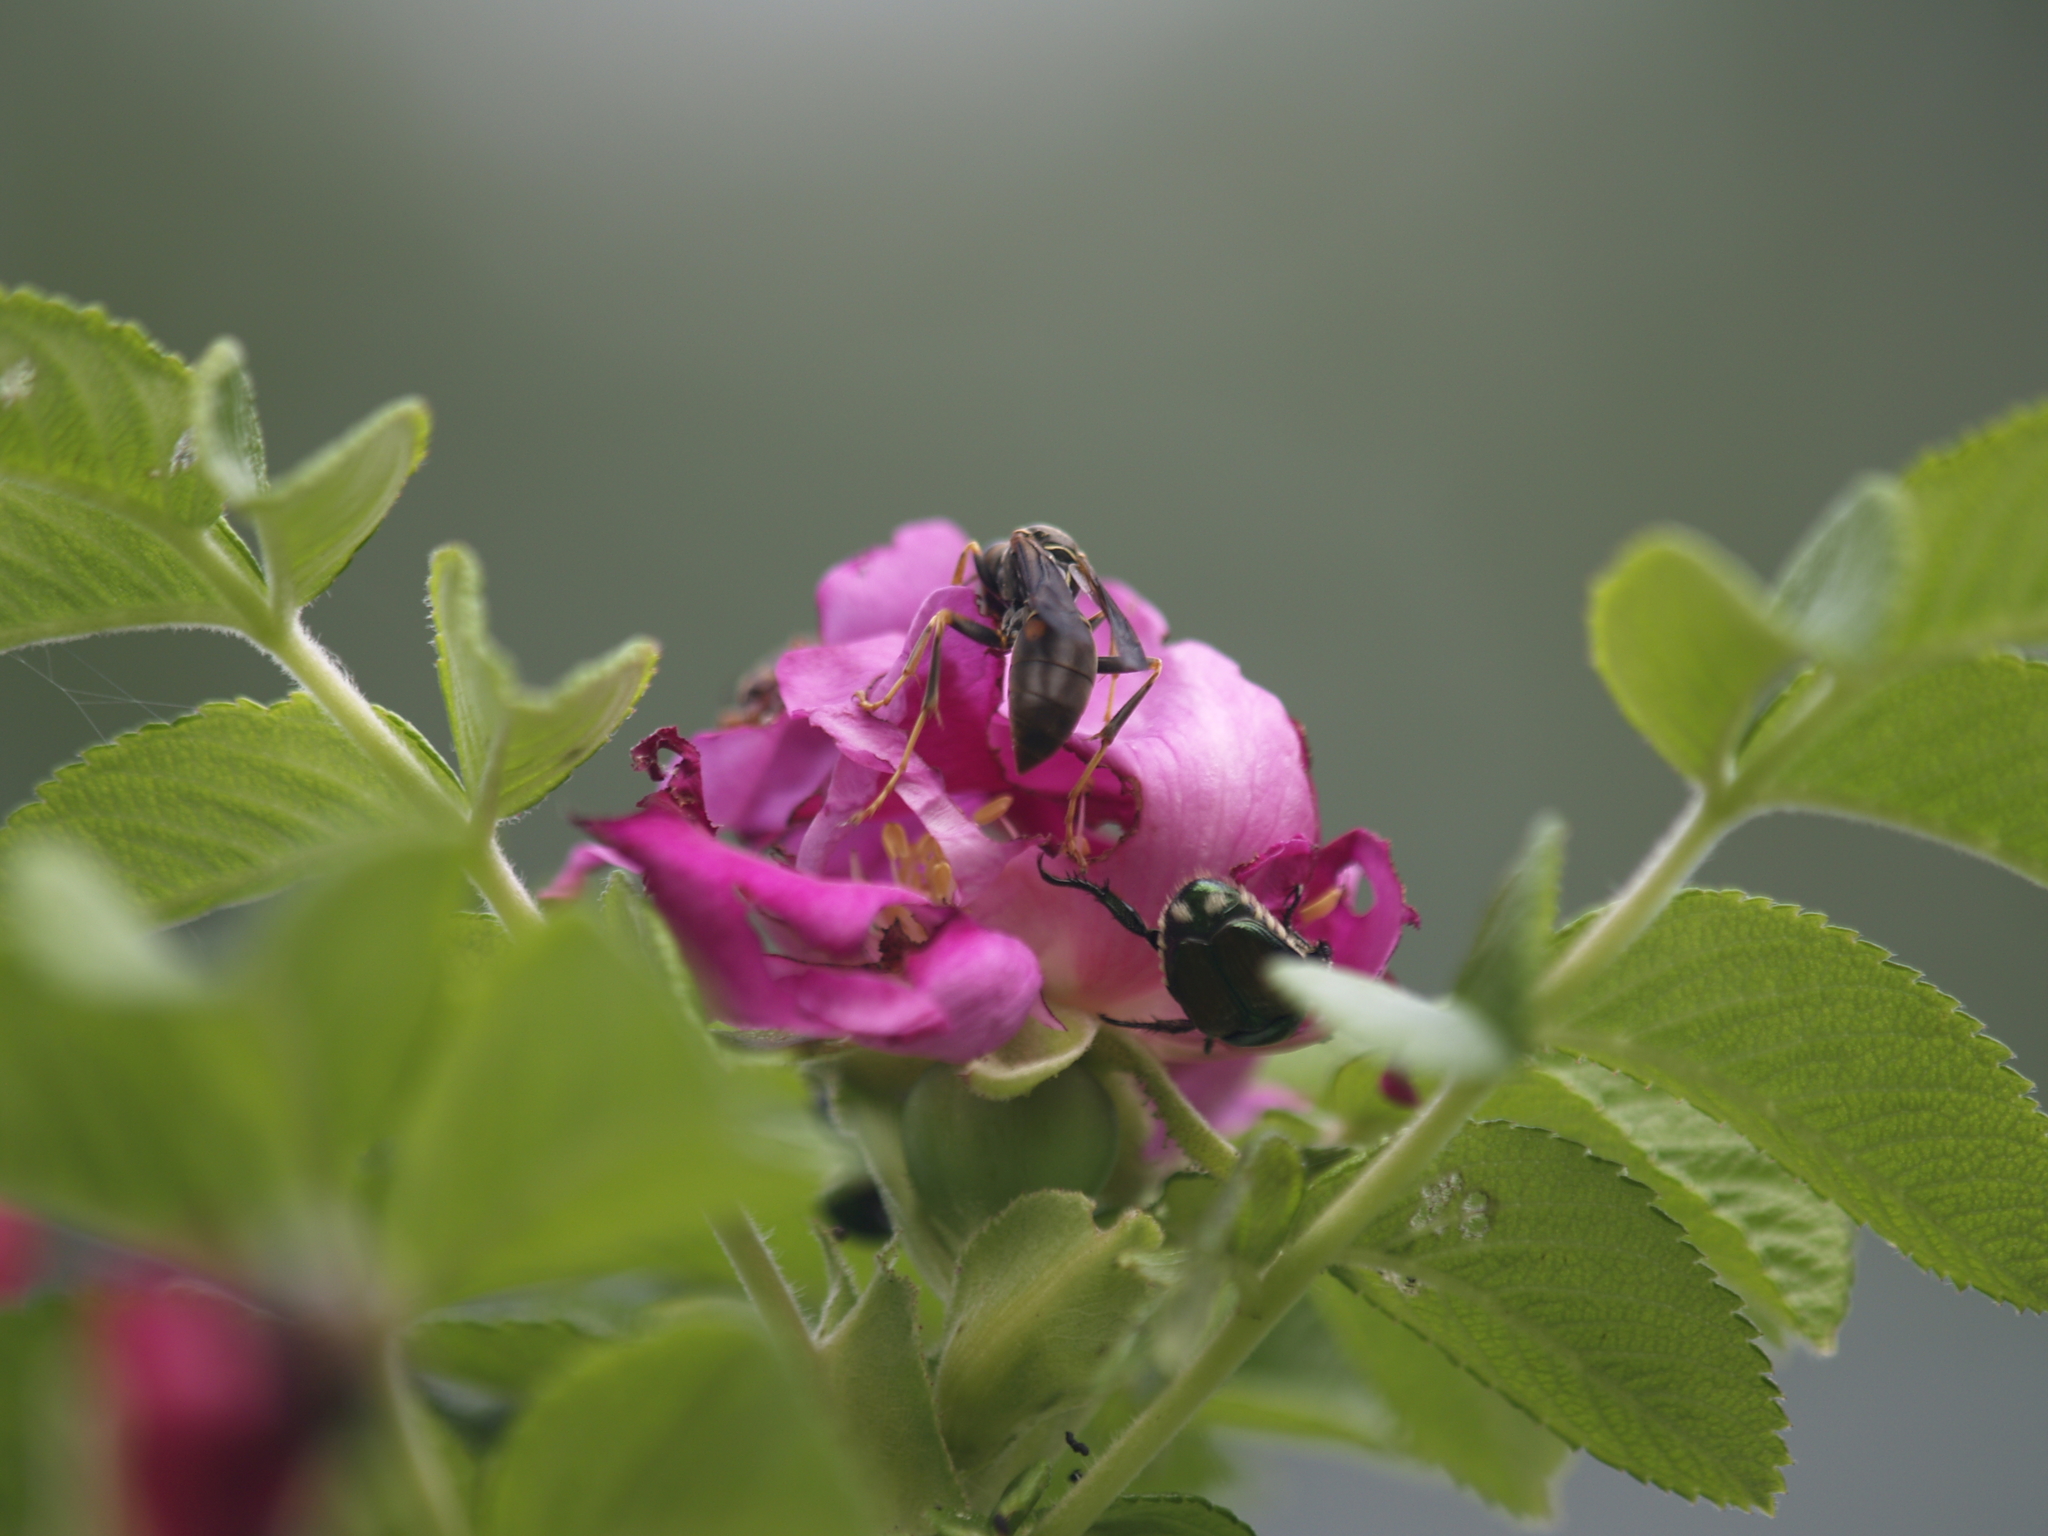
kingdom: Animalia
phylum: Arthropoda
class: Insecta
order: Hymenoptera
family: Eumenidae
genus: Polistes
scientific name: Polistes fuscatus
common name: Dark paper wasp
